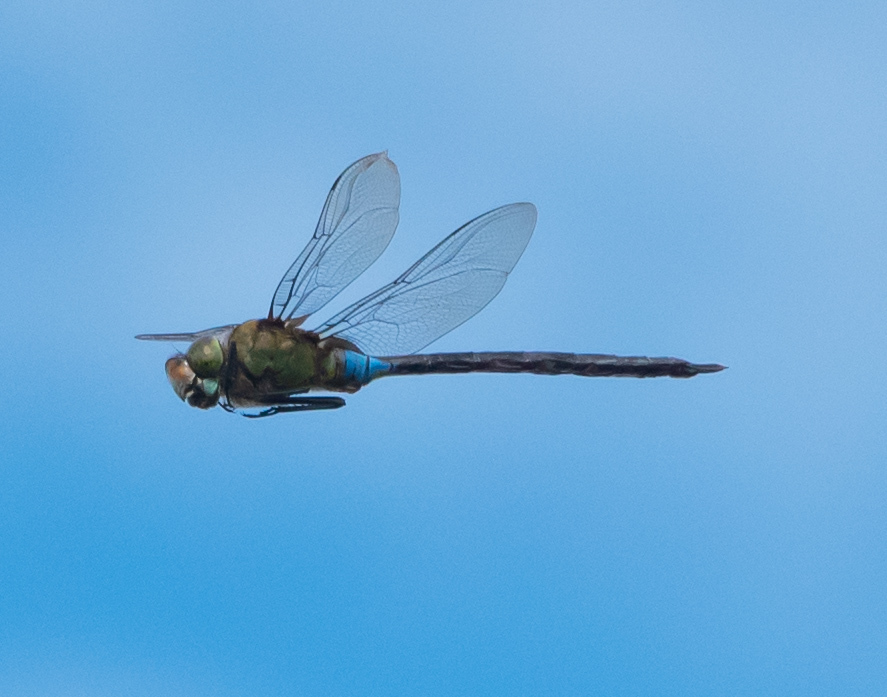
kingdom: Animalia
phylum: Arthropoda
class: Insecta
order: Odonata
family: Aeshnidae
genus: Anax
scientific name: Anax strenuus
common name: Giant hawaiian darner
